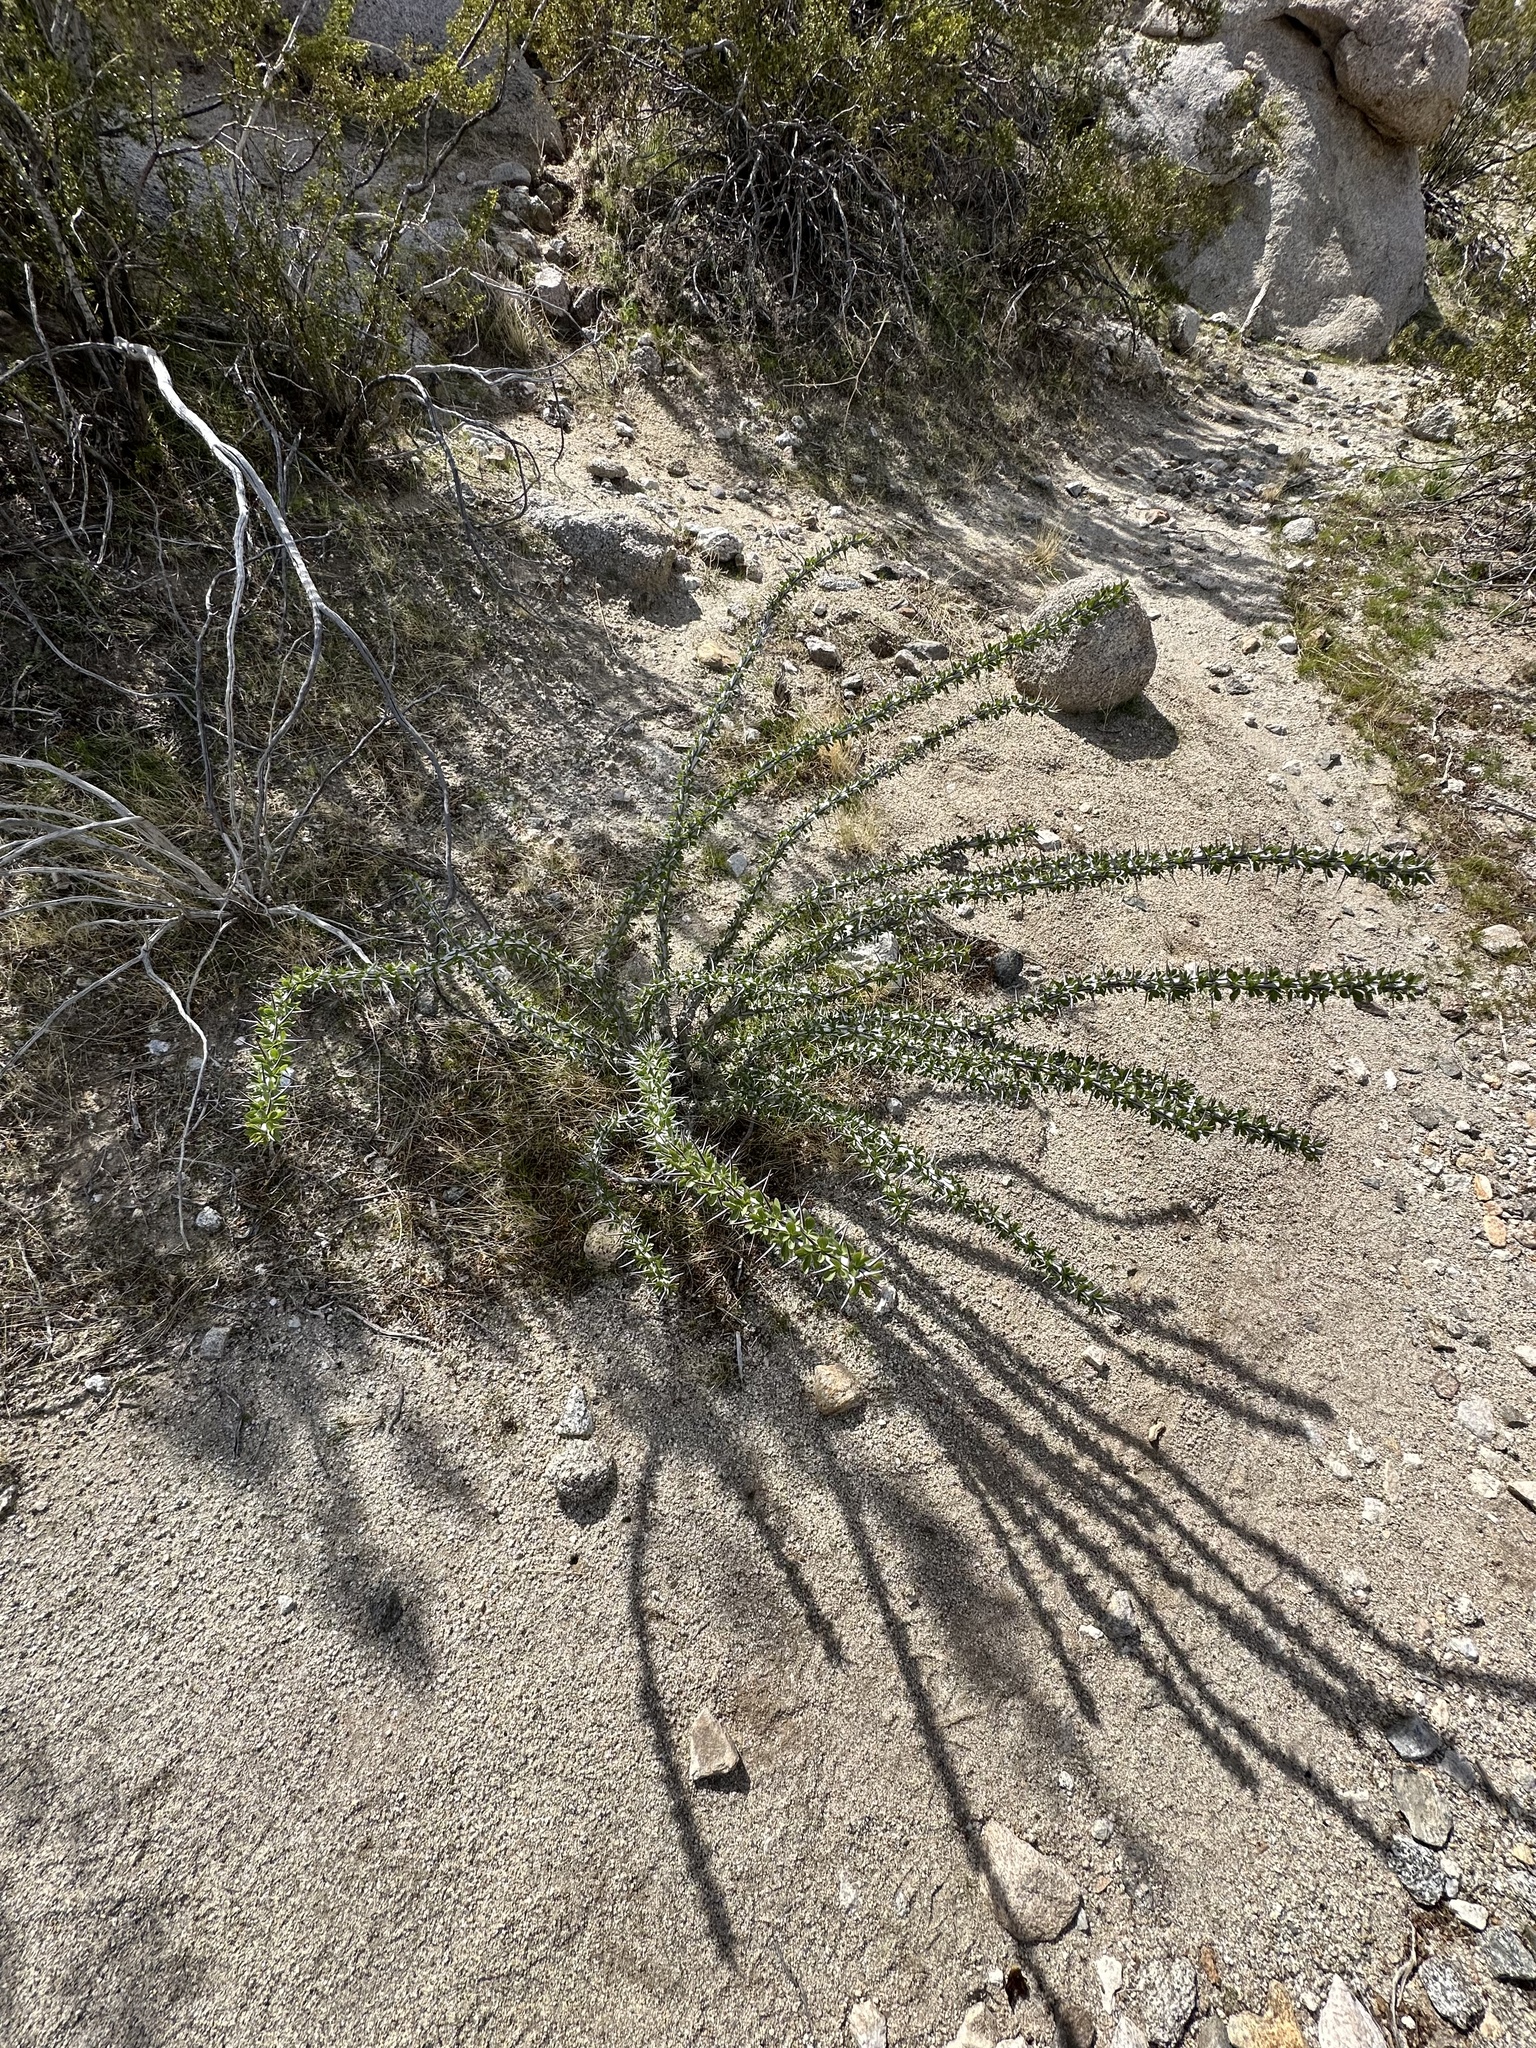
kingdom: Plantae
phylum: Tracheophyta
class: Magnoliopsida
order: Ericales
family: Fouquieriaceae
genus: Fouquieria
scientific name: Fouquieria splendens
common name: Vine-cactus
